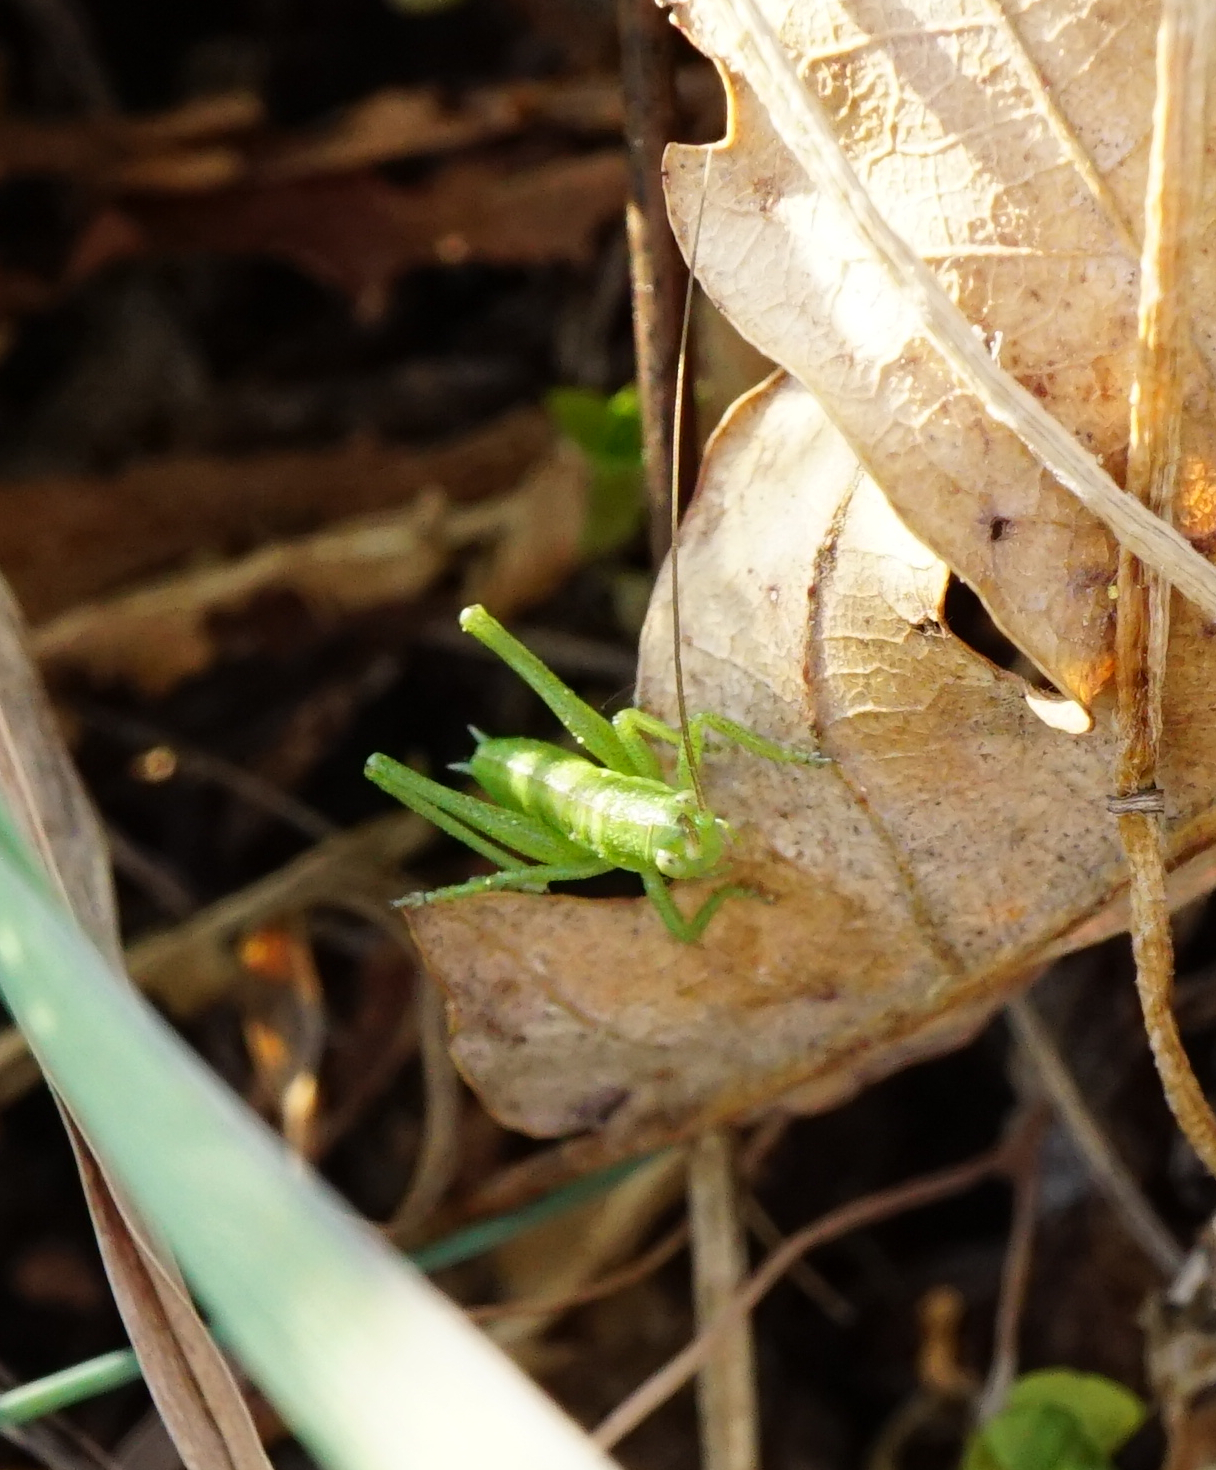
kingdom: Animalia
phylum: Arthropoda
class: Insecta
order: Orthoptera
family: Tettigoniidae
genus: Tettigonia
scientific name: Tettigonia
